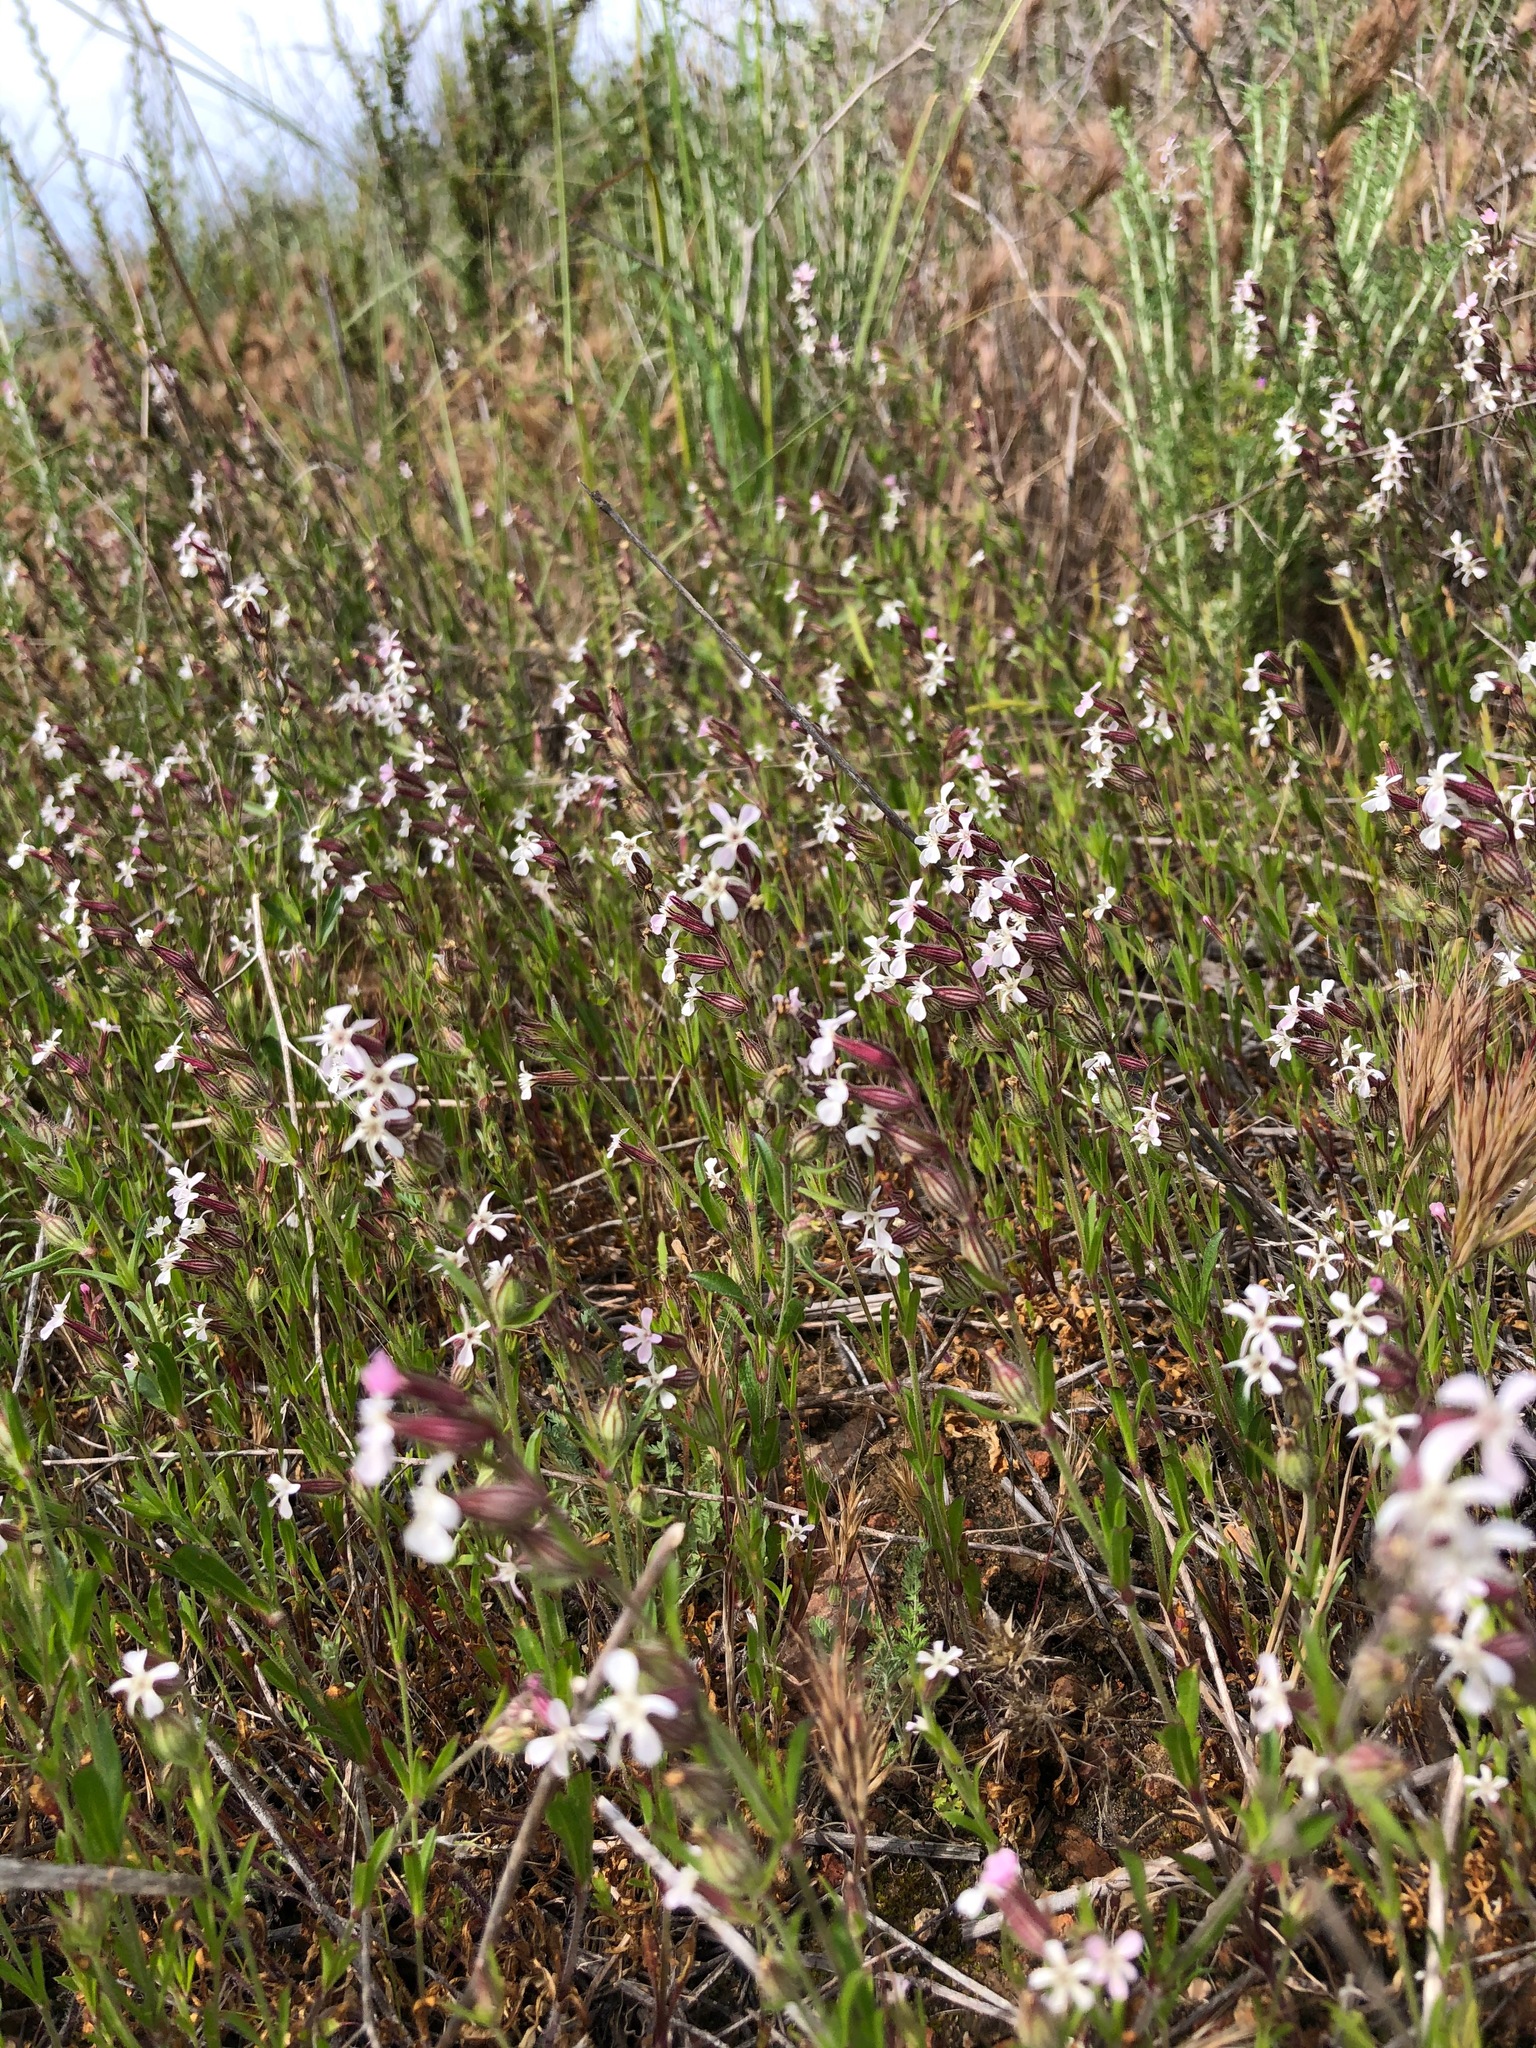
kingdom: Plantae
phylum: Tracheophyta
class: Magnoliopsida
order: Caryophyllales
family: Caryophyllaceae
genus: Silene
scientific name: Silene gallica
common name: Small-flowered catchfly
